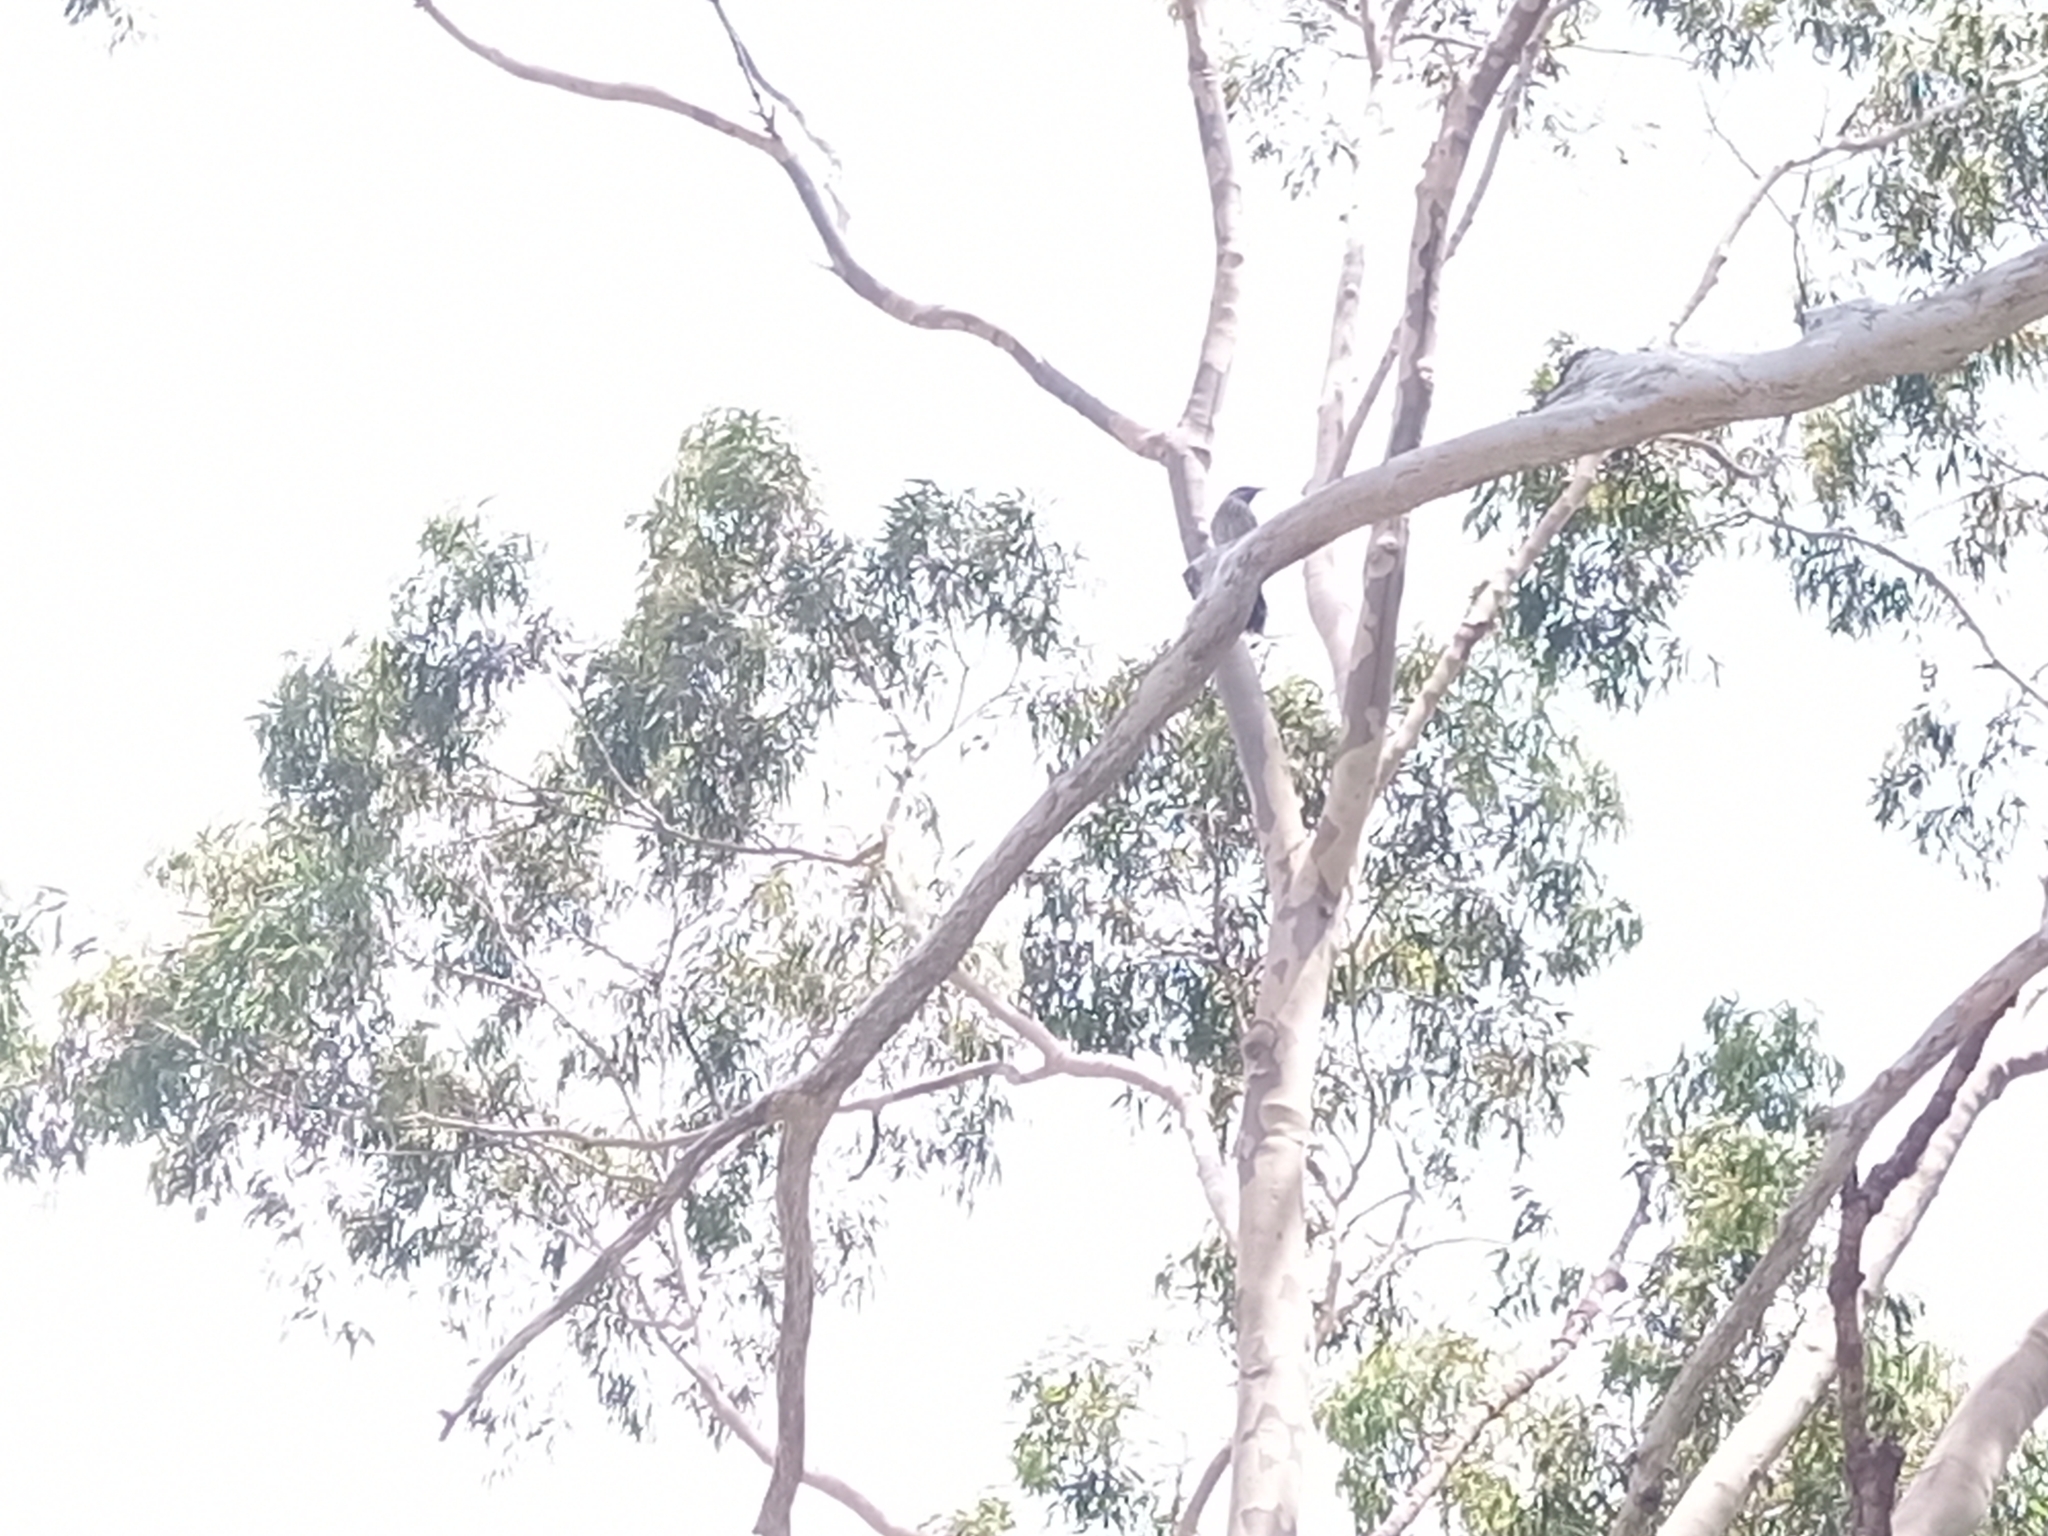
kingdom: Animalia
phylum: Chordata
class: Aves
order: Passeriformes
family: Meliphagidae
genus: Anthochaera
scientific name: Anthochaera chrysoptera
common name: Little wattlebird
